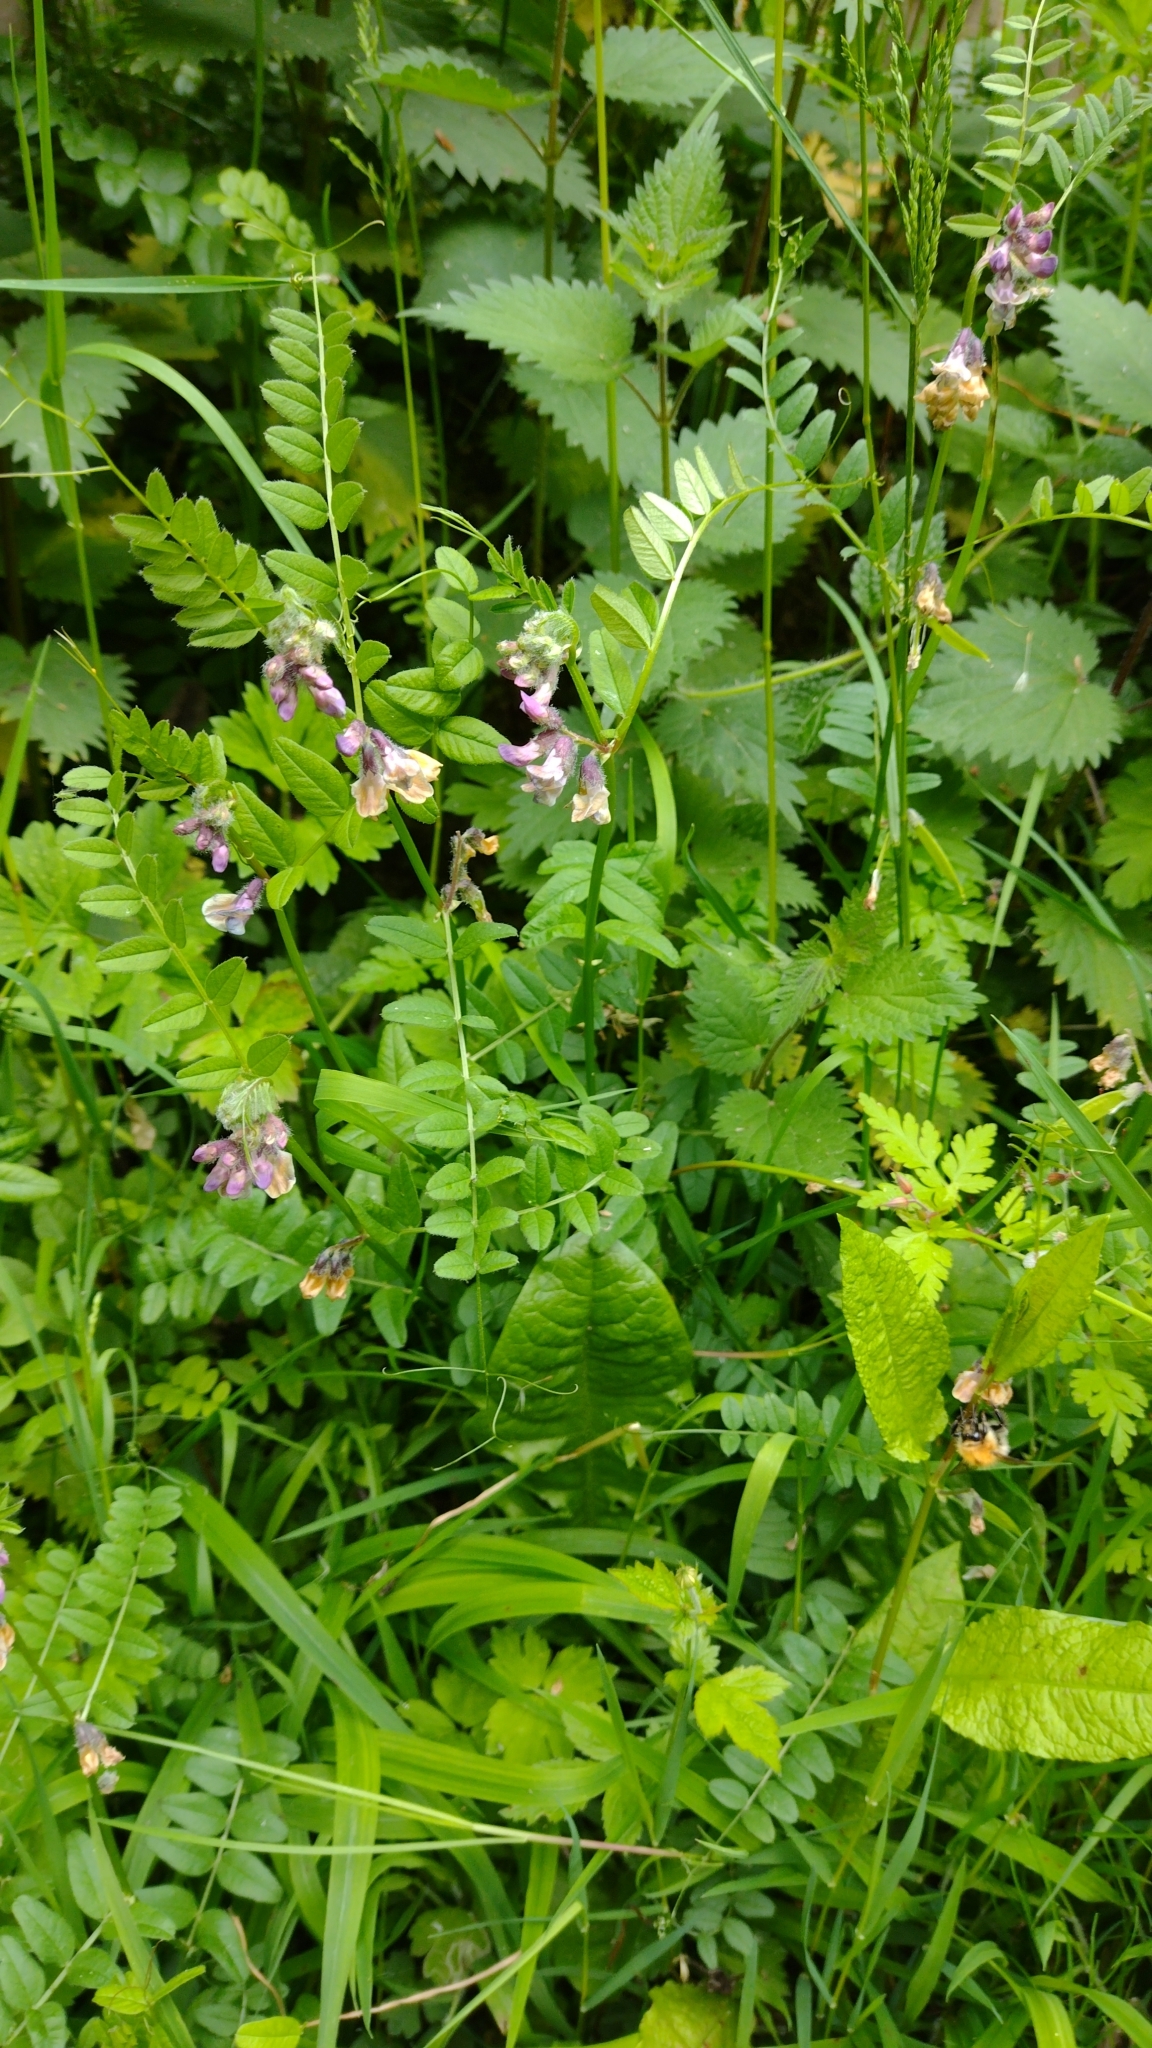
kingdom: Plantae
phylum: Tracheophyta
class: Magnoliopsida
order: Fabales
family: Fabaceae
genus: Vicia
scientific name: Vicia sepium
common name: Bush vetch
